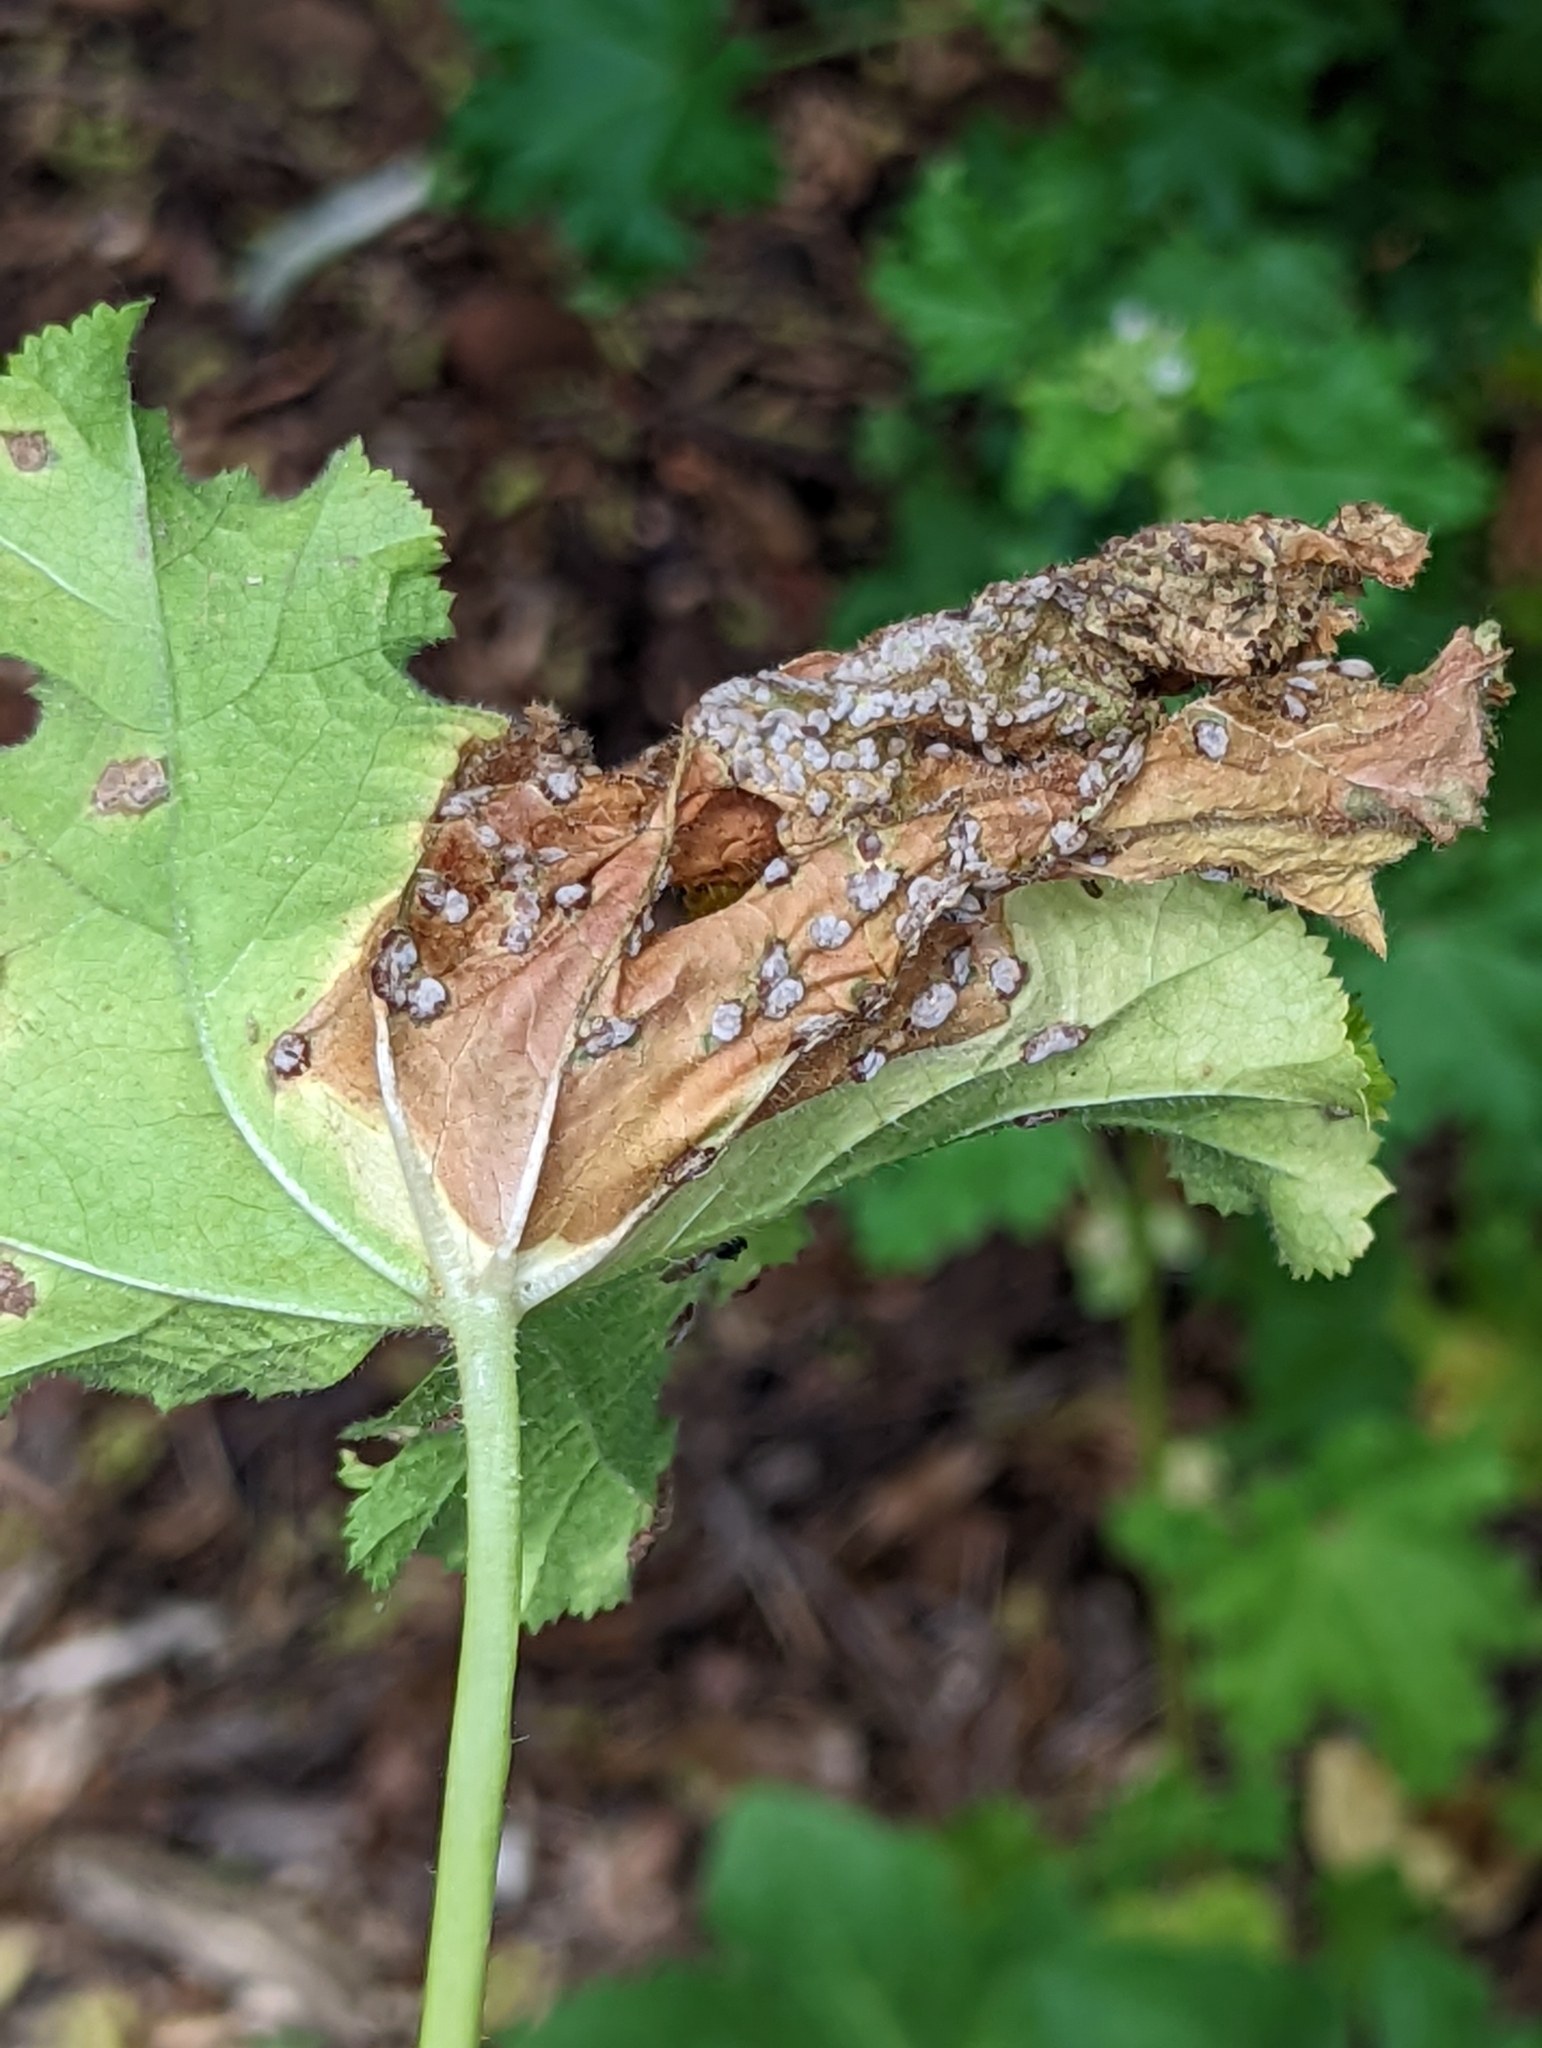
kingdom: Fungi
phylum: Basidiomycota
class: Pucciniomycetes
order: Pucciniales
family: Pucciniaceae
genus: Puccinia
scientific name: Puccinia malvacearum
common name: Hollyhock rust
